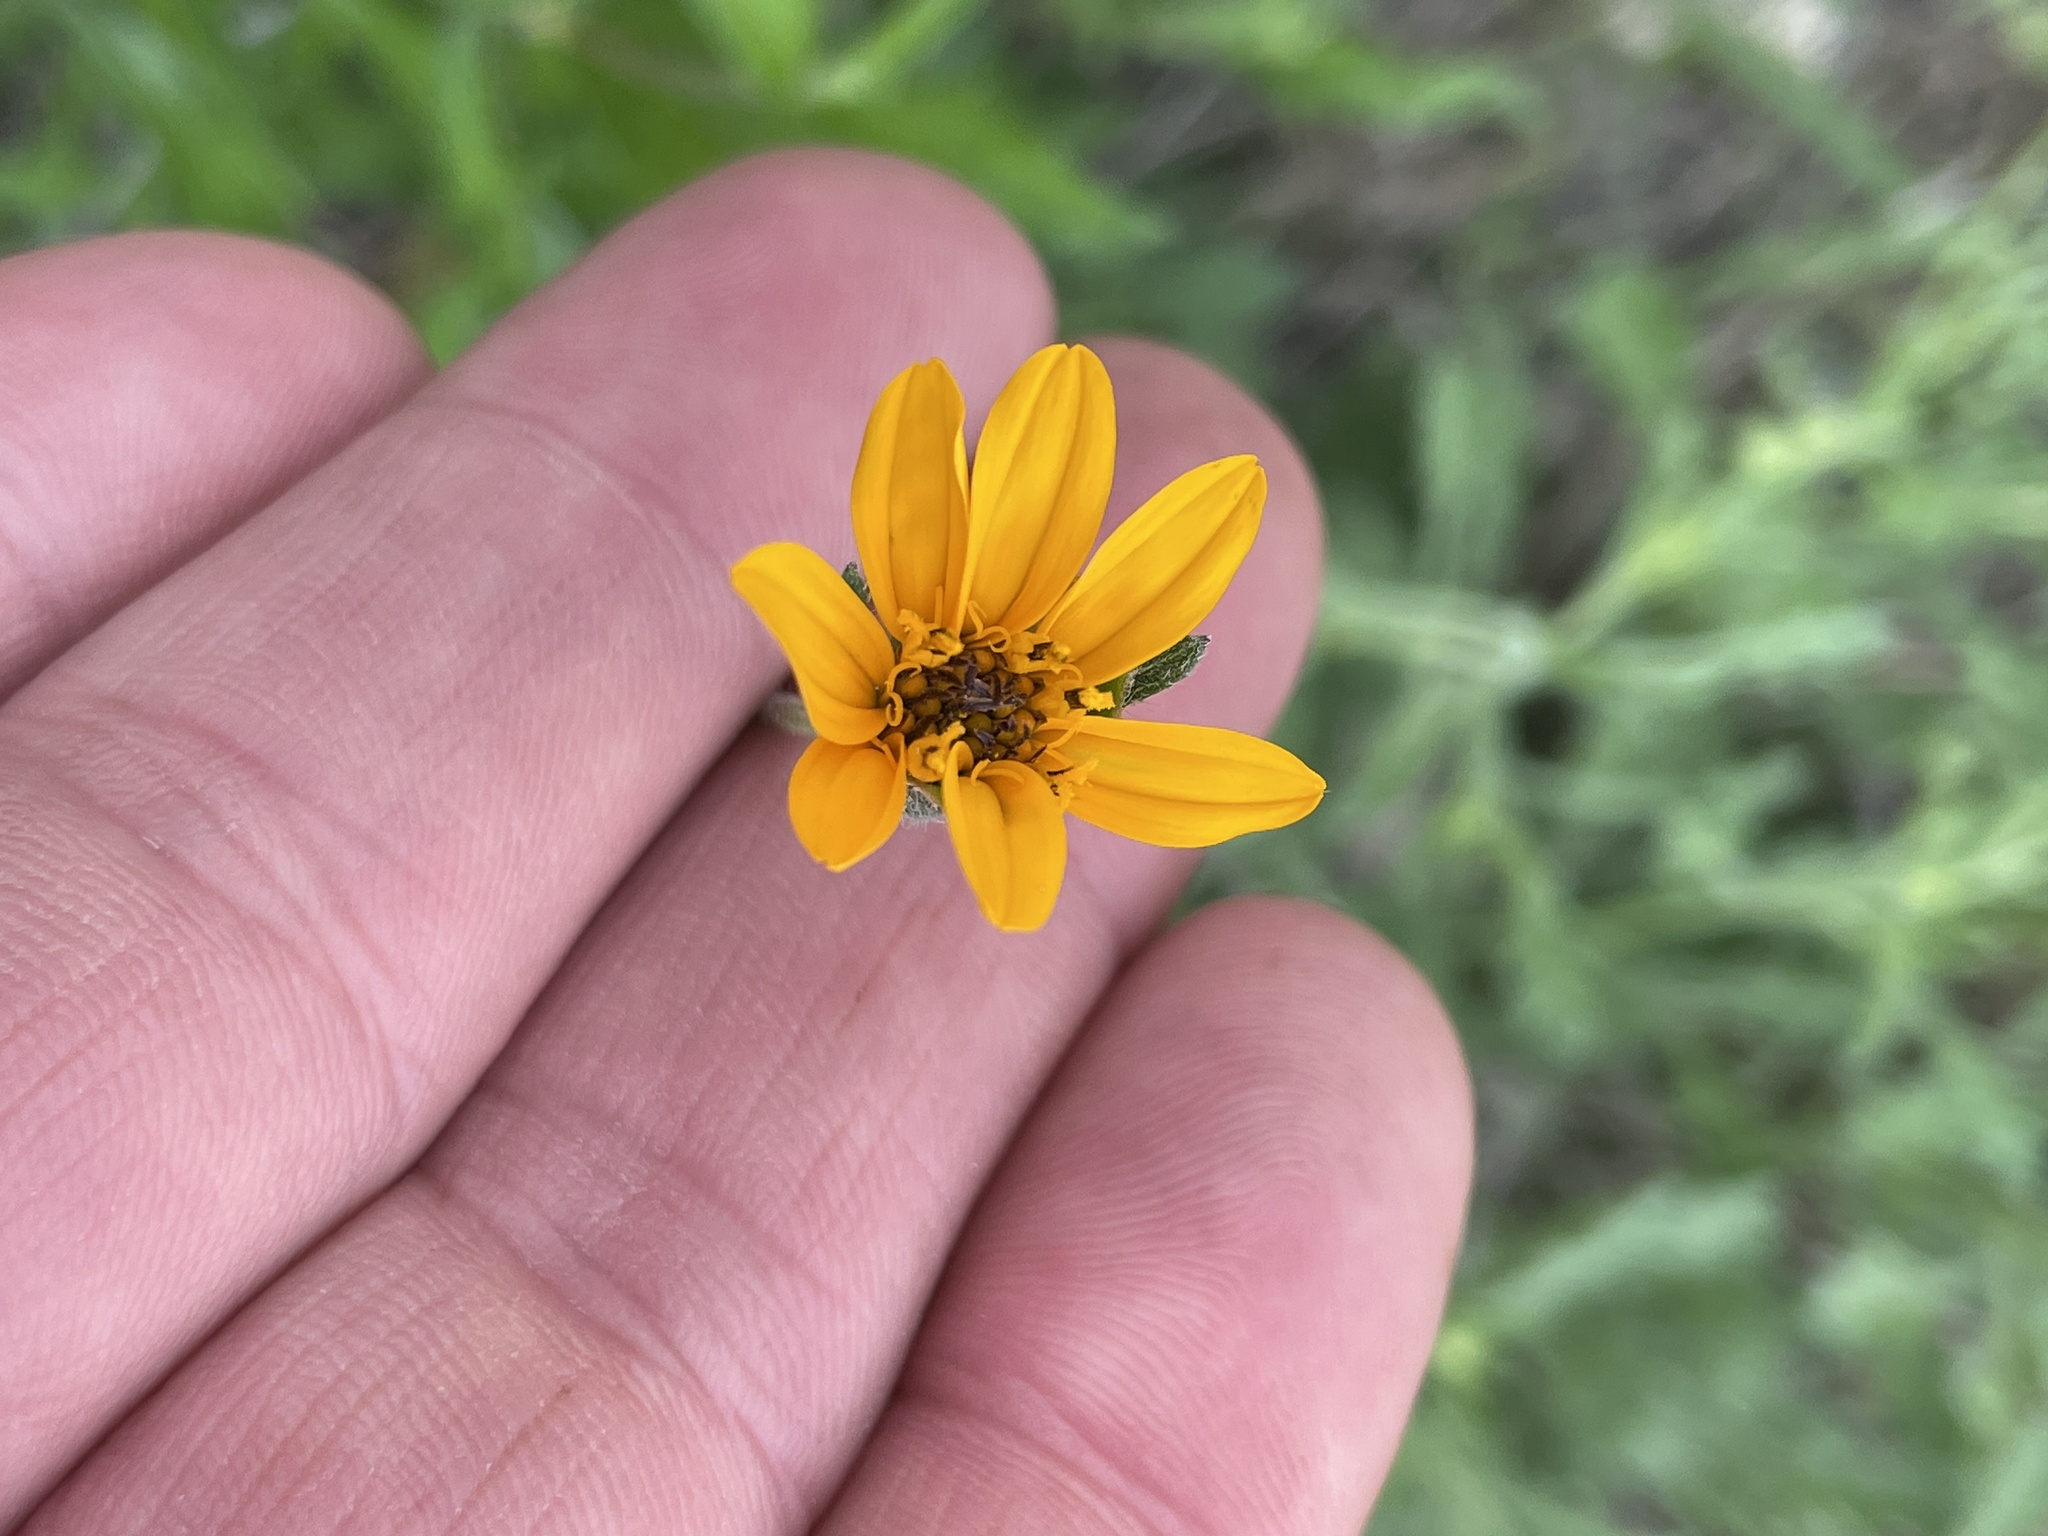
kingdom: Plantae
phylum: Tracheophyta
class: Magnoliopsida
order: Asterales
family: Asteraceae
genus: Wedelia
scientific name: Wedelia acapulcensis
